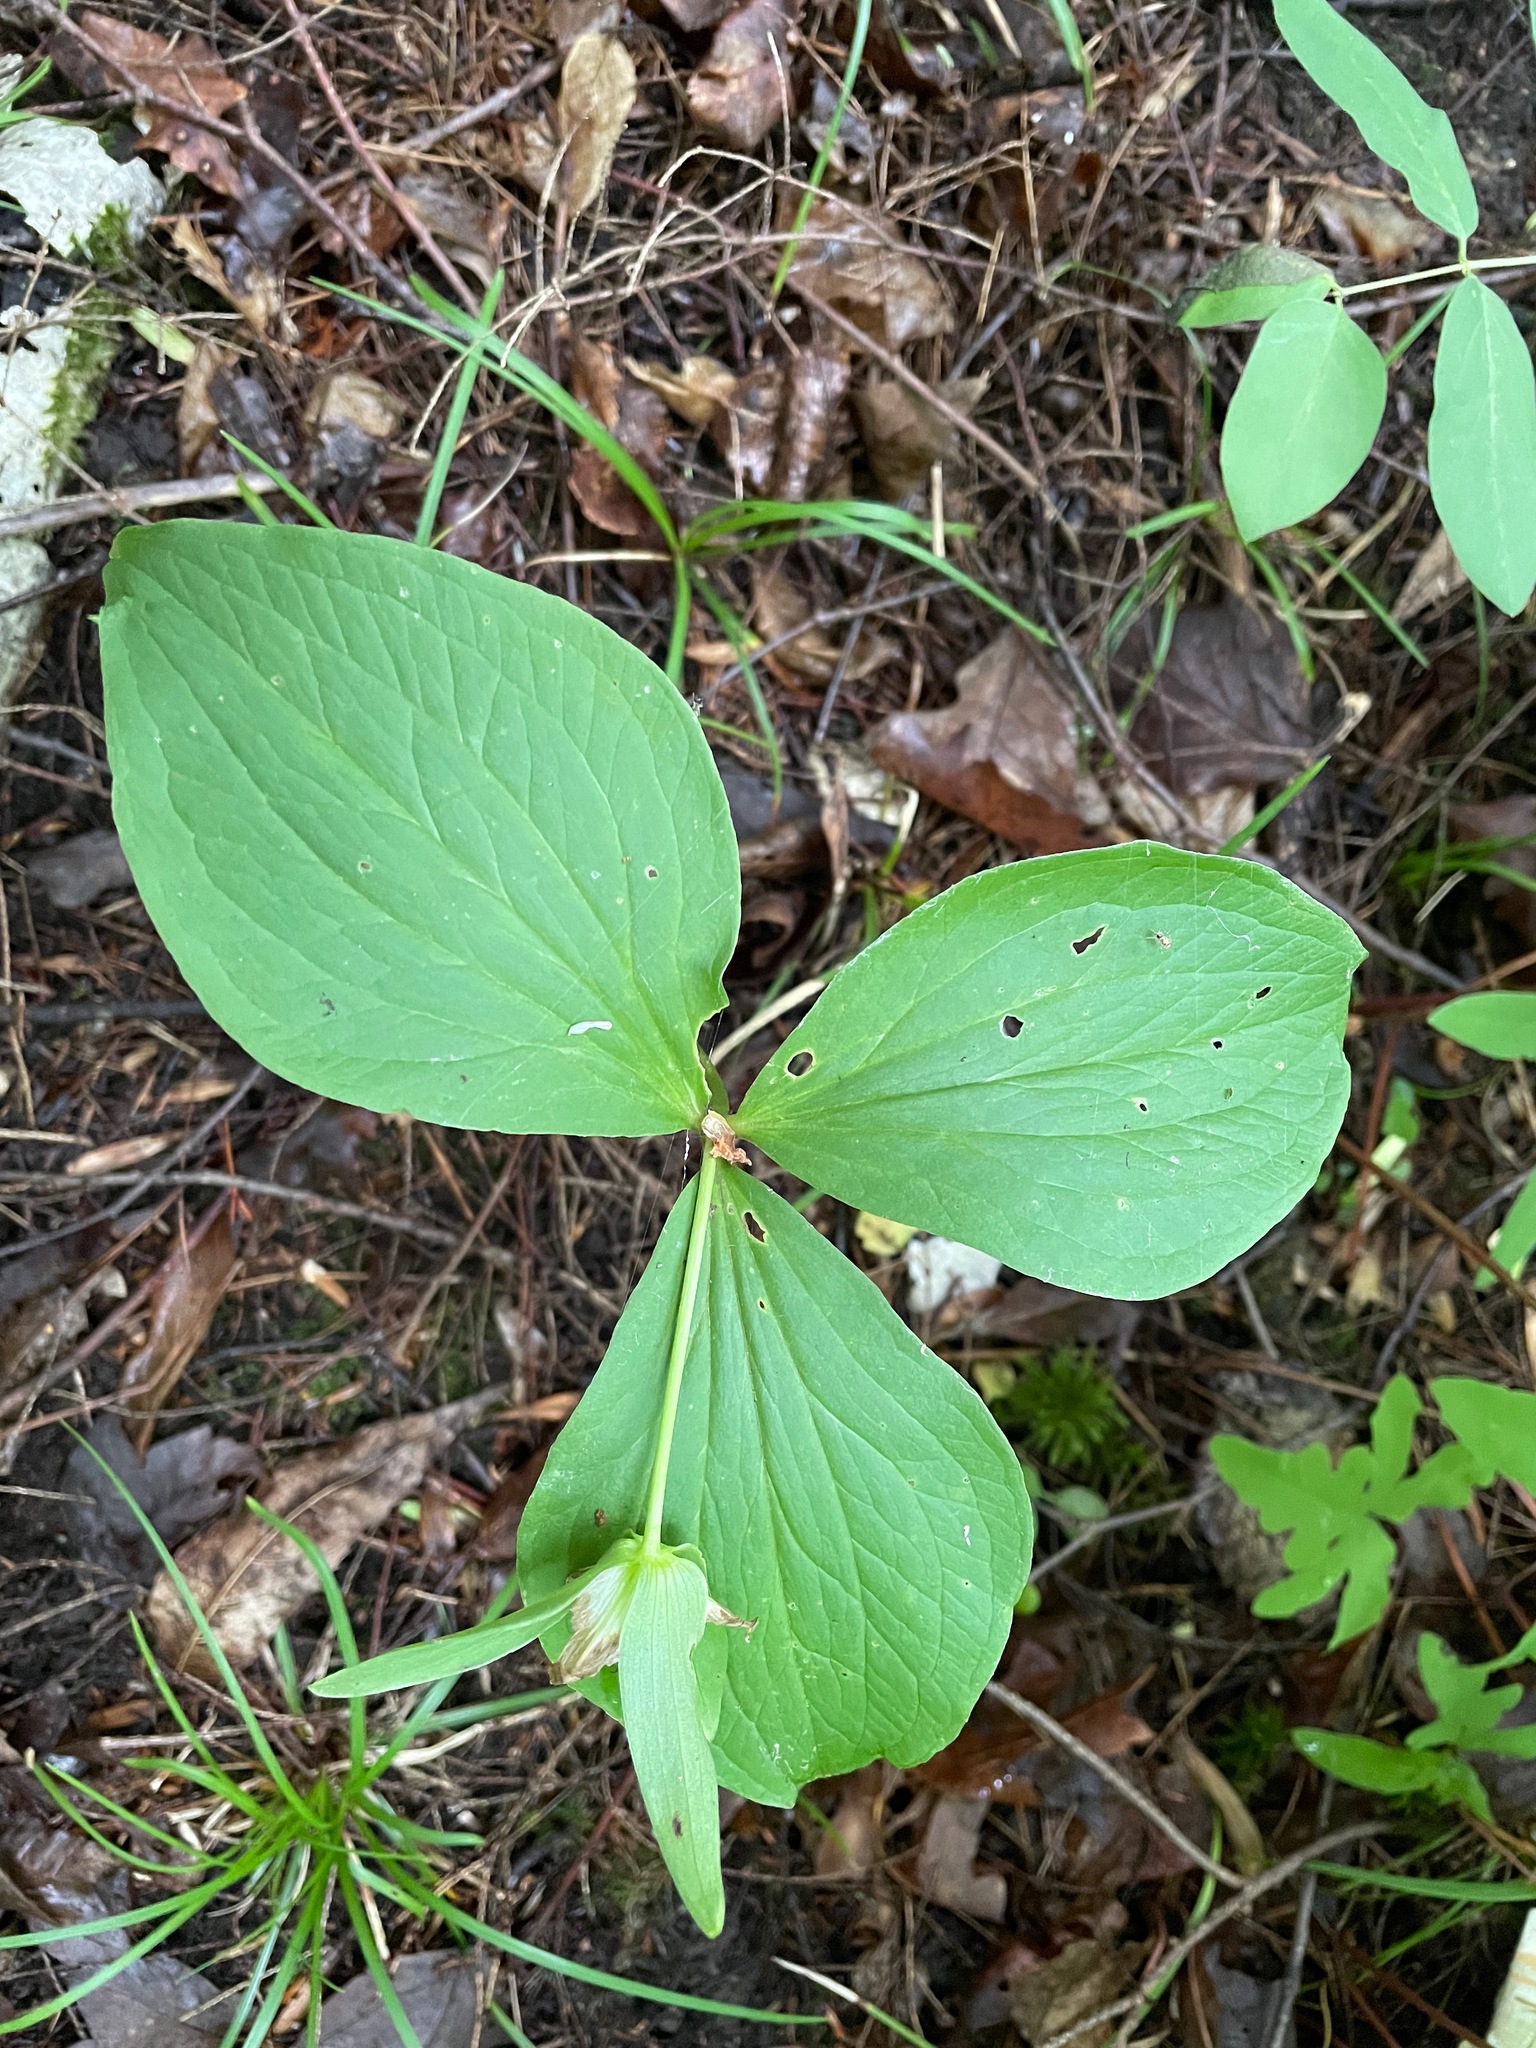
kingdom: Plantae
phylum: Tracheophyta
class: Liliopsida
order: Liliales
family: Melanthiaceae
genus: Trillium
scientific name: Trillium grandiflorum
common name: Great white trillium
